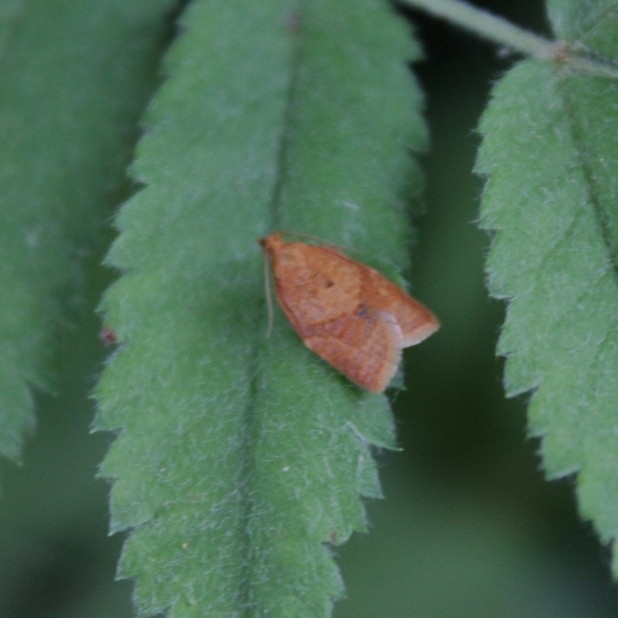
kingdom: Animalia
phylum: Arthropoda
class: Insecta
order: Lepidoptera
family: Tortricidae
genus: Clepsis
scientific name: Clepsis consimilana
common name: Privet tortrix
